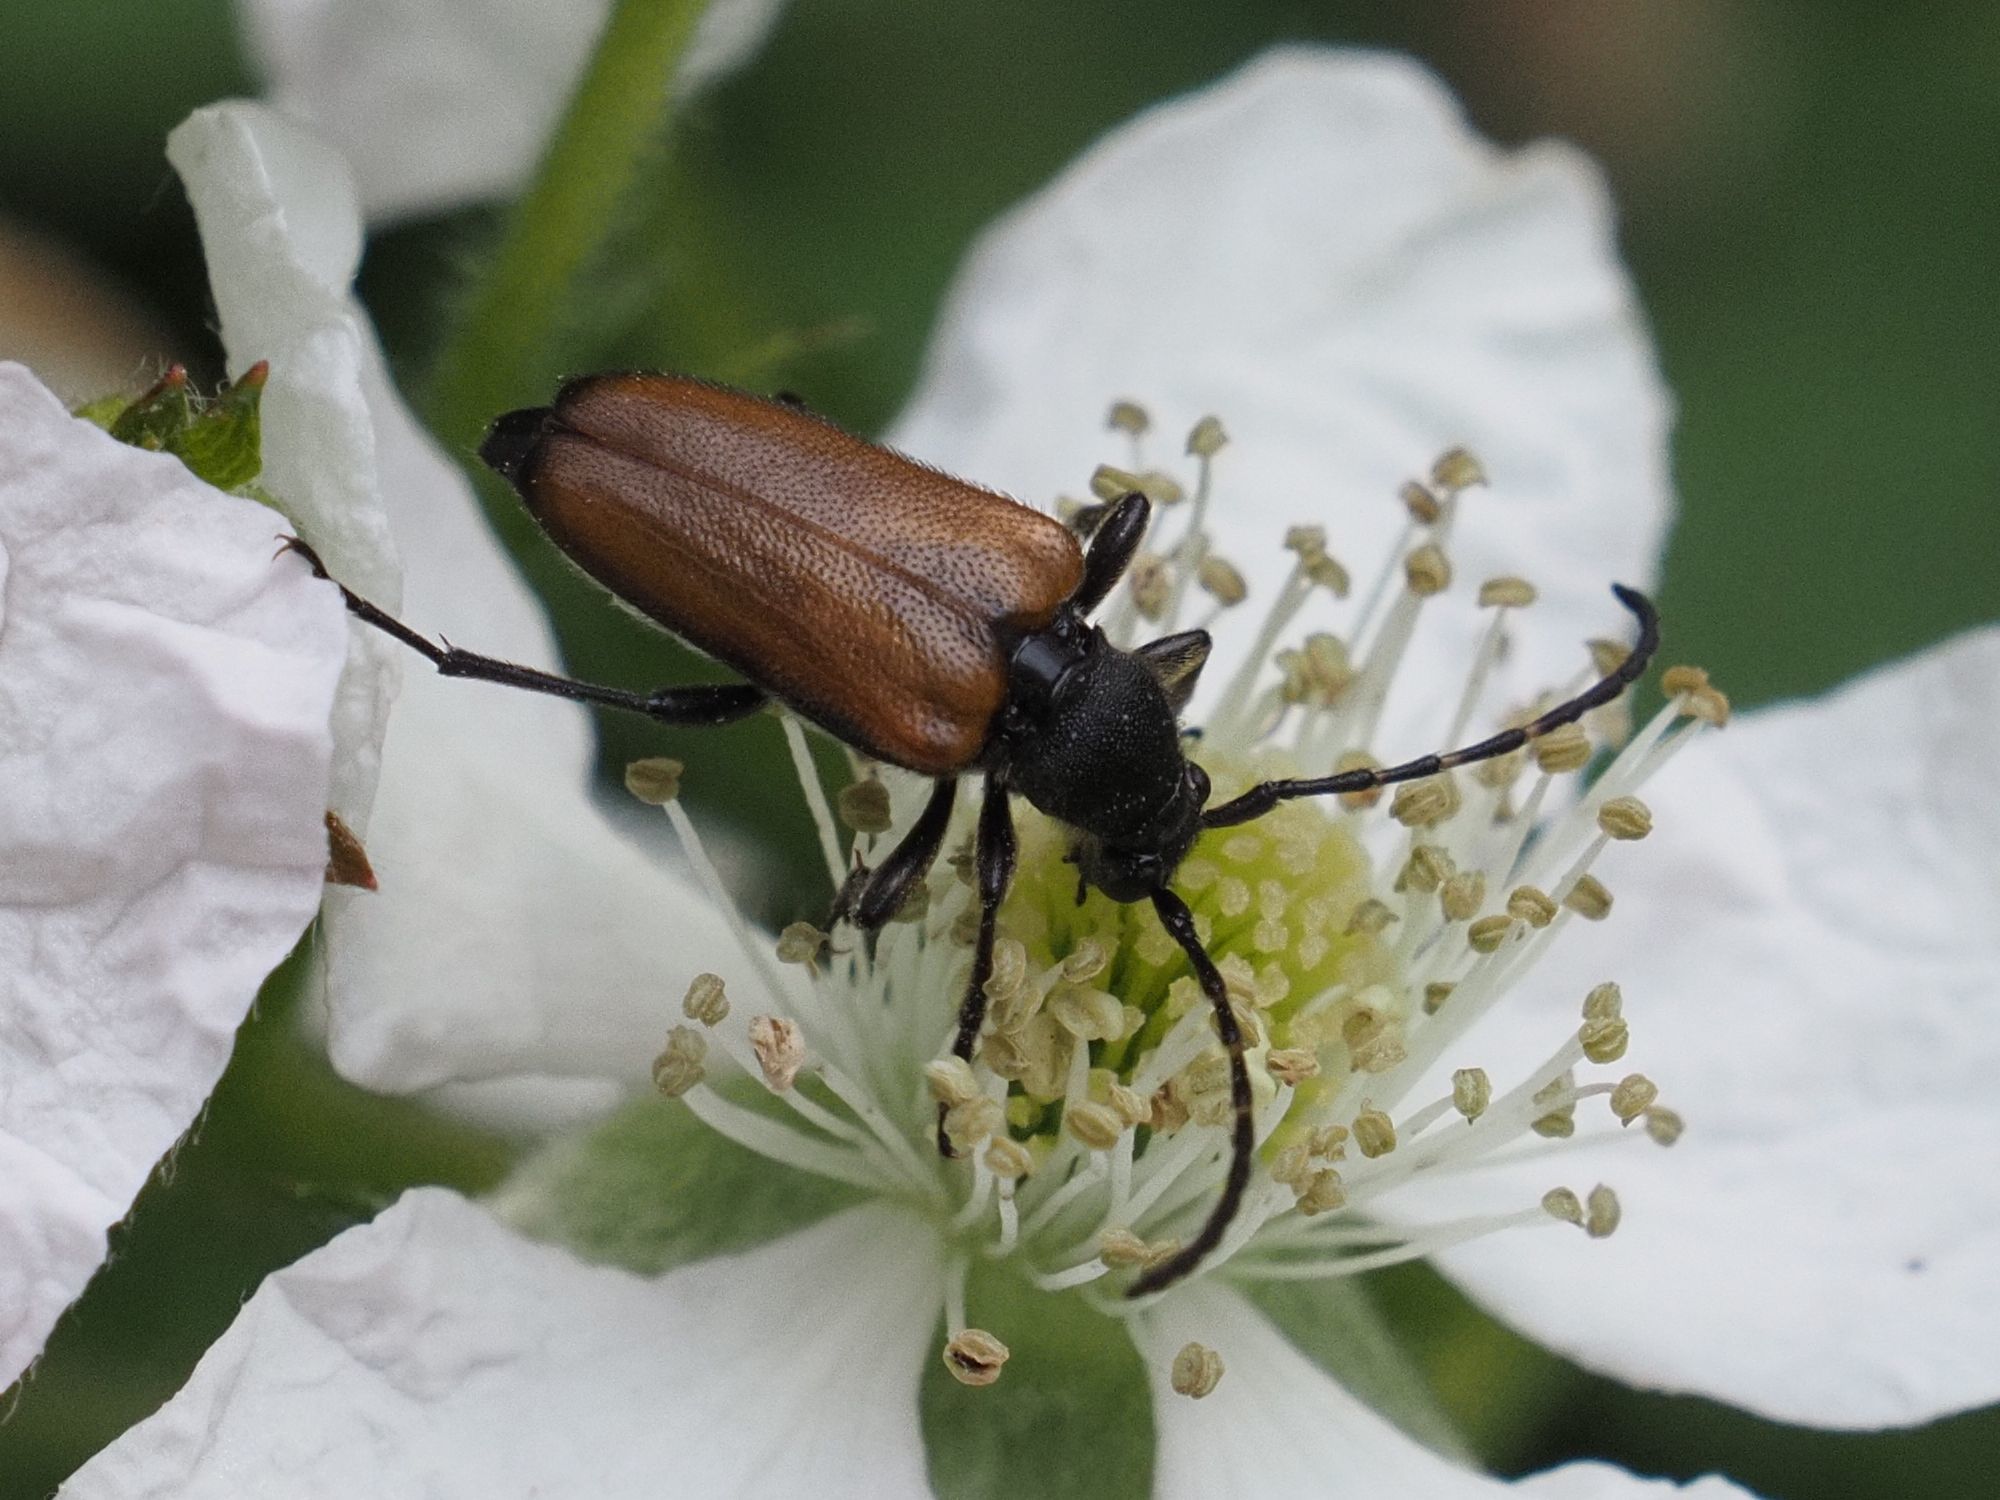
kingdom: Animalia
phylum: Arthropoda
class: Insecta
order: Coleoptera
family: Cerambycidae
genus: Paracorymbia
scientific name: Paracorymbia maculicornis
